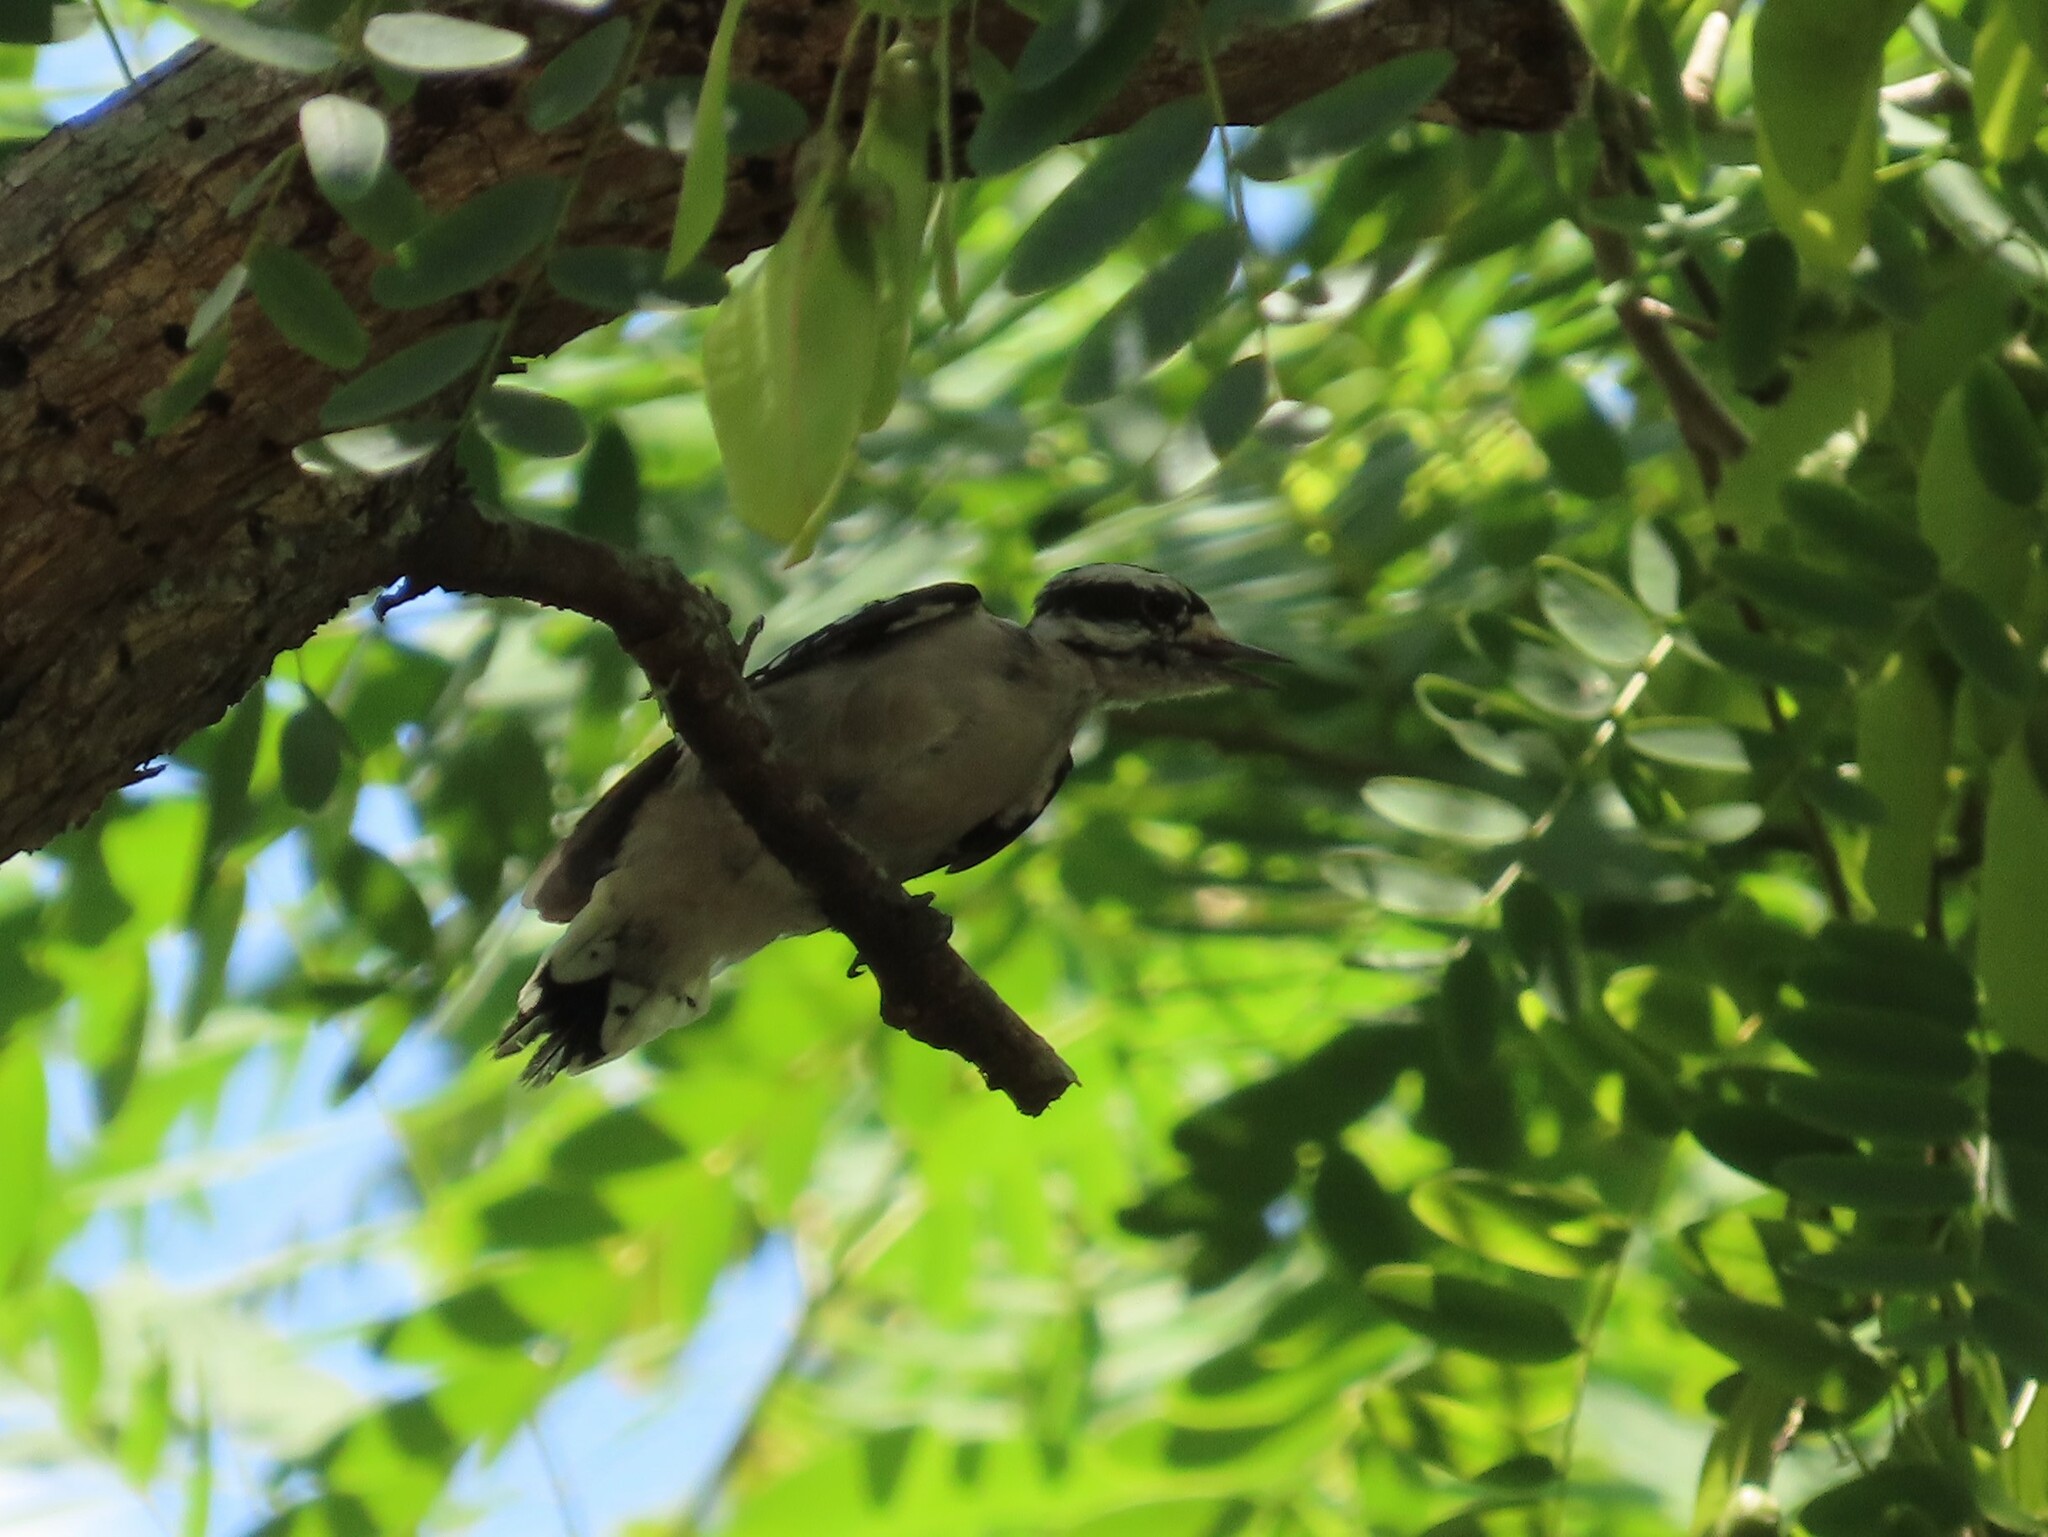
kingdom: Animalia
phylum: Chordata
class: Aves
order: Piciformes
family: Picidae
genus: Dryobates
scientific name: Dryobates pubescens
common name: Downy woodpecker
